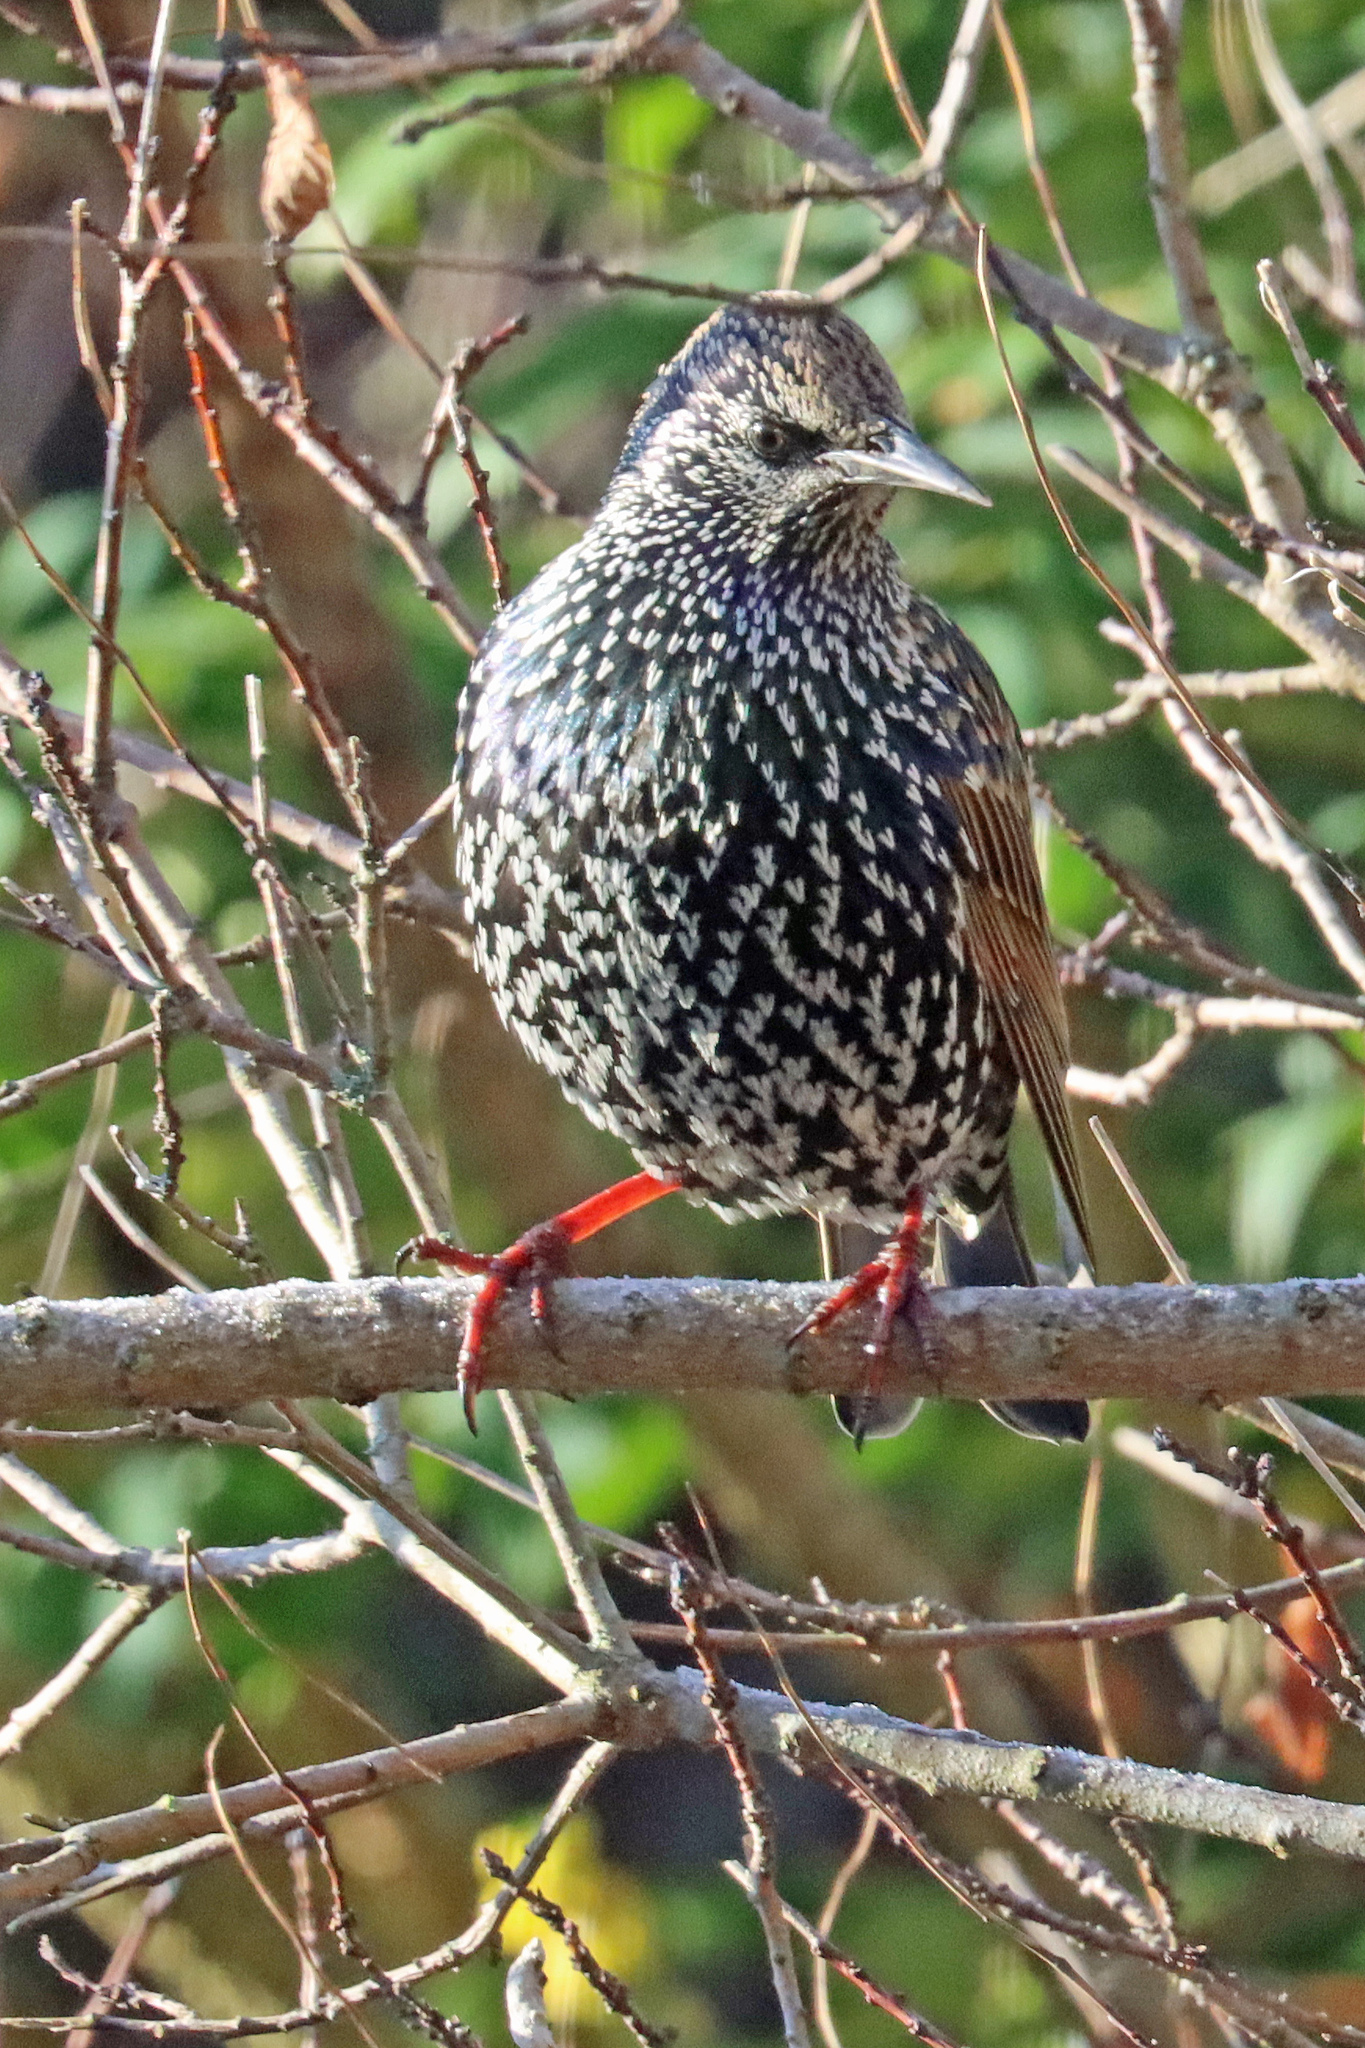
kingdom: Animalia
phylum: Chordata
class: Aves
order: Passeriformes
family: Sturnidae
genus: Sturnus
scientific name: Sturnus vulgaris
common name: Common starling
